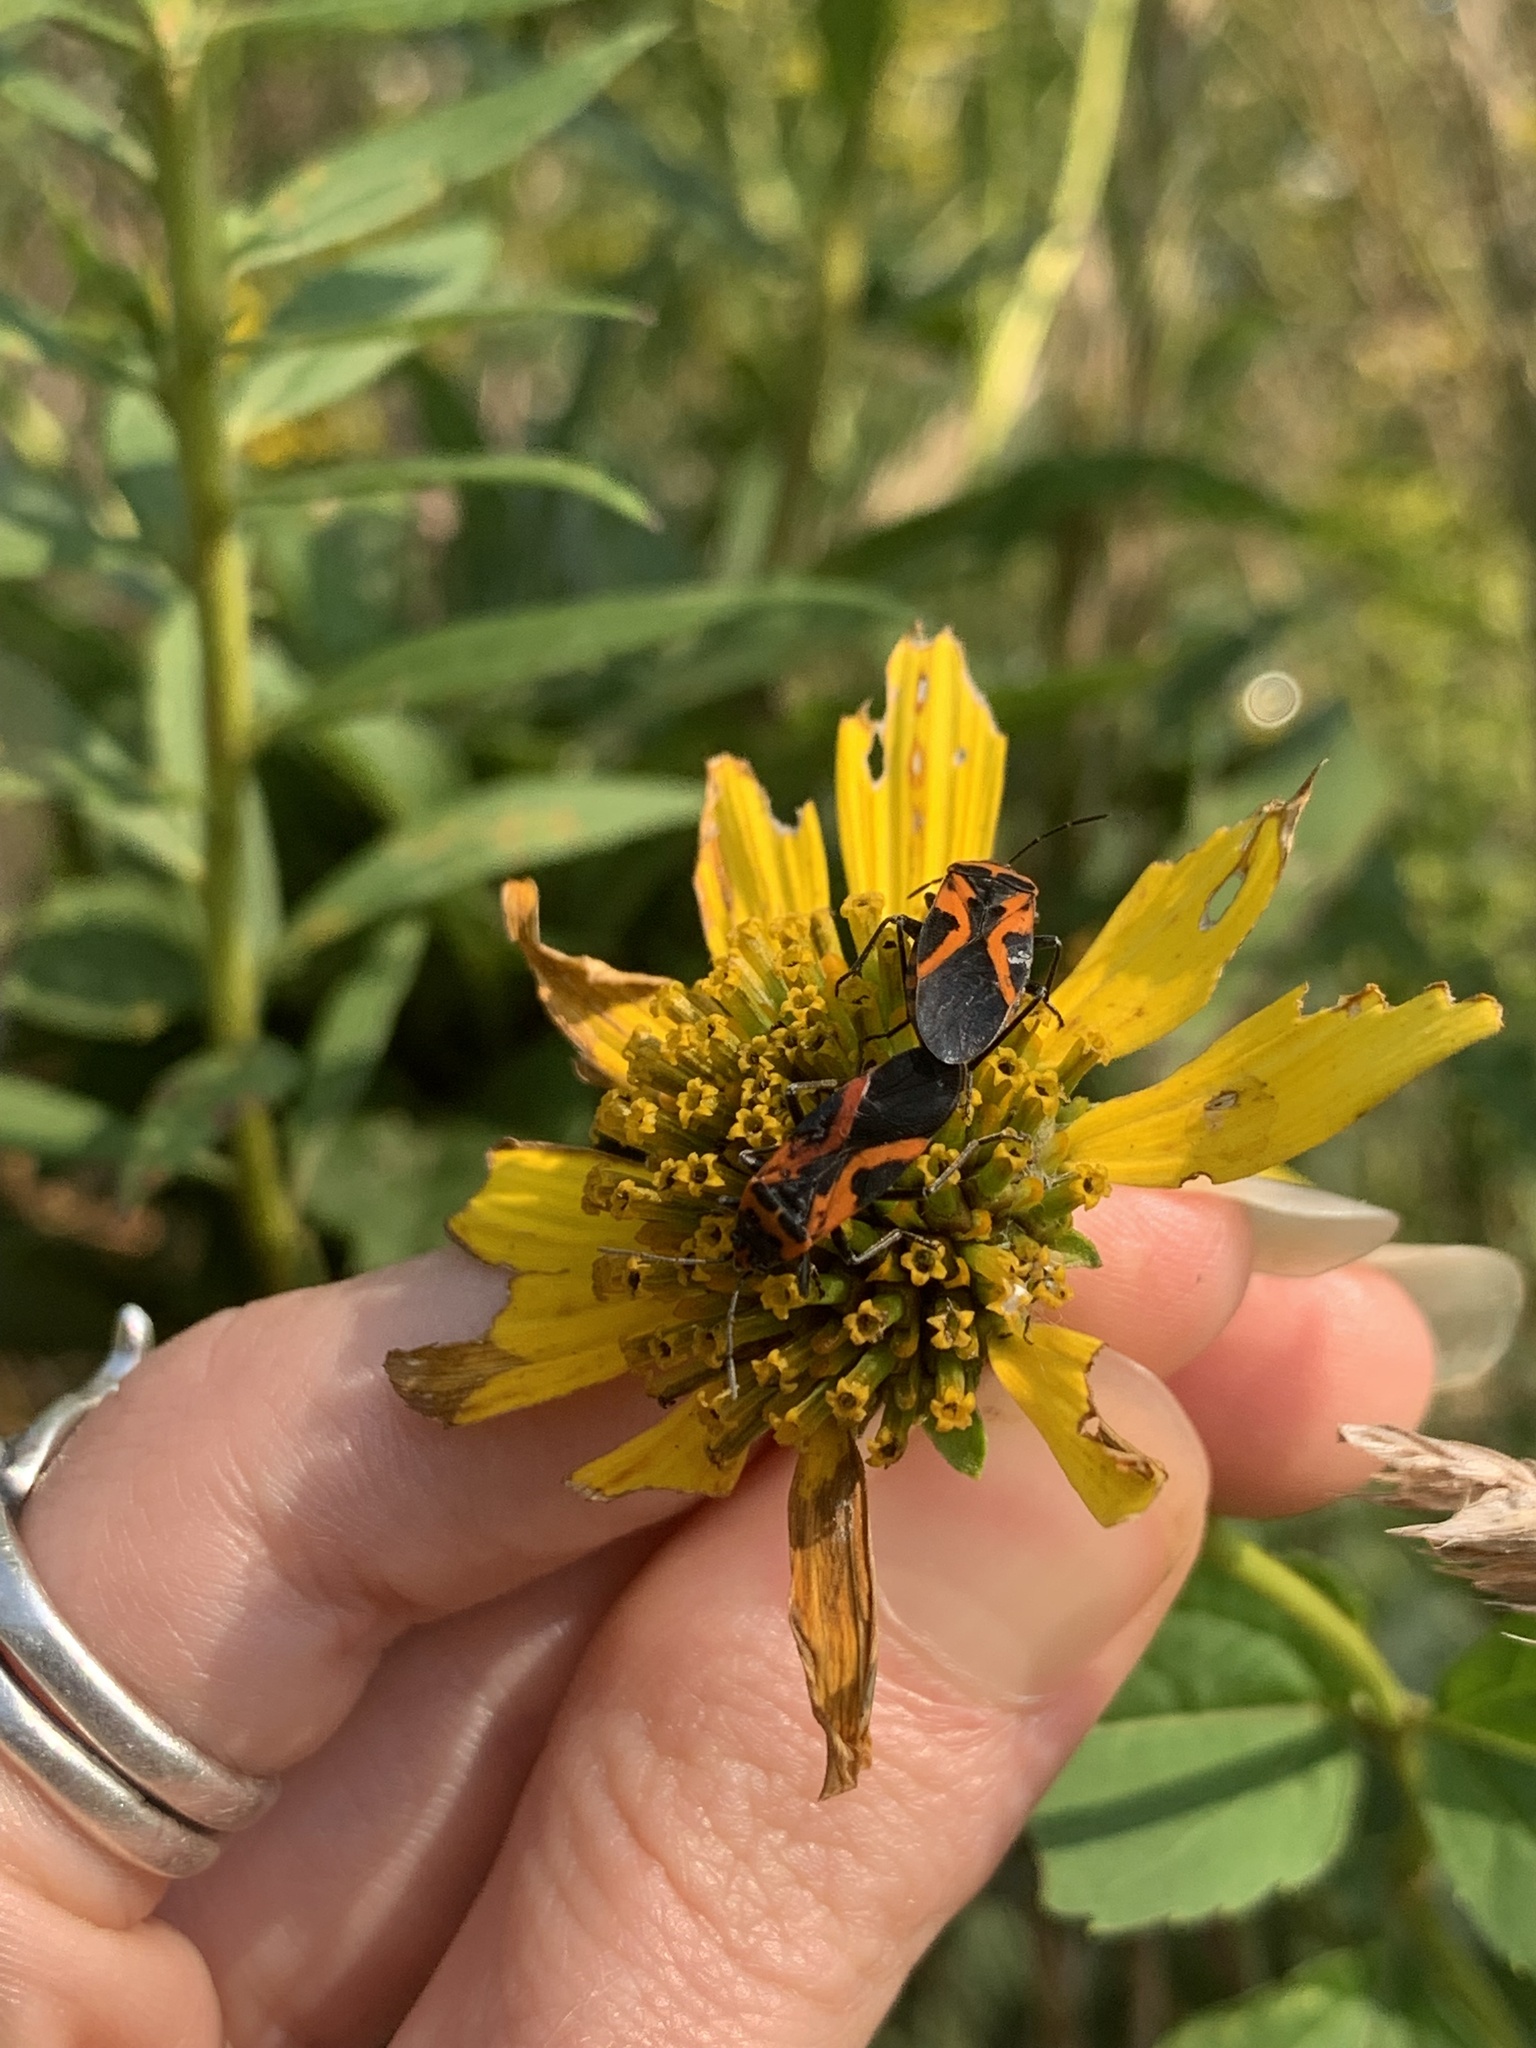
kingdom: Animalia
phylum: Arthropoda
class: Insecta
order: Hemiptera
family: Lygaeidae
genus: Lygaeus
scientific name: Lygaeus turcicus
